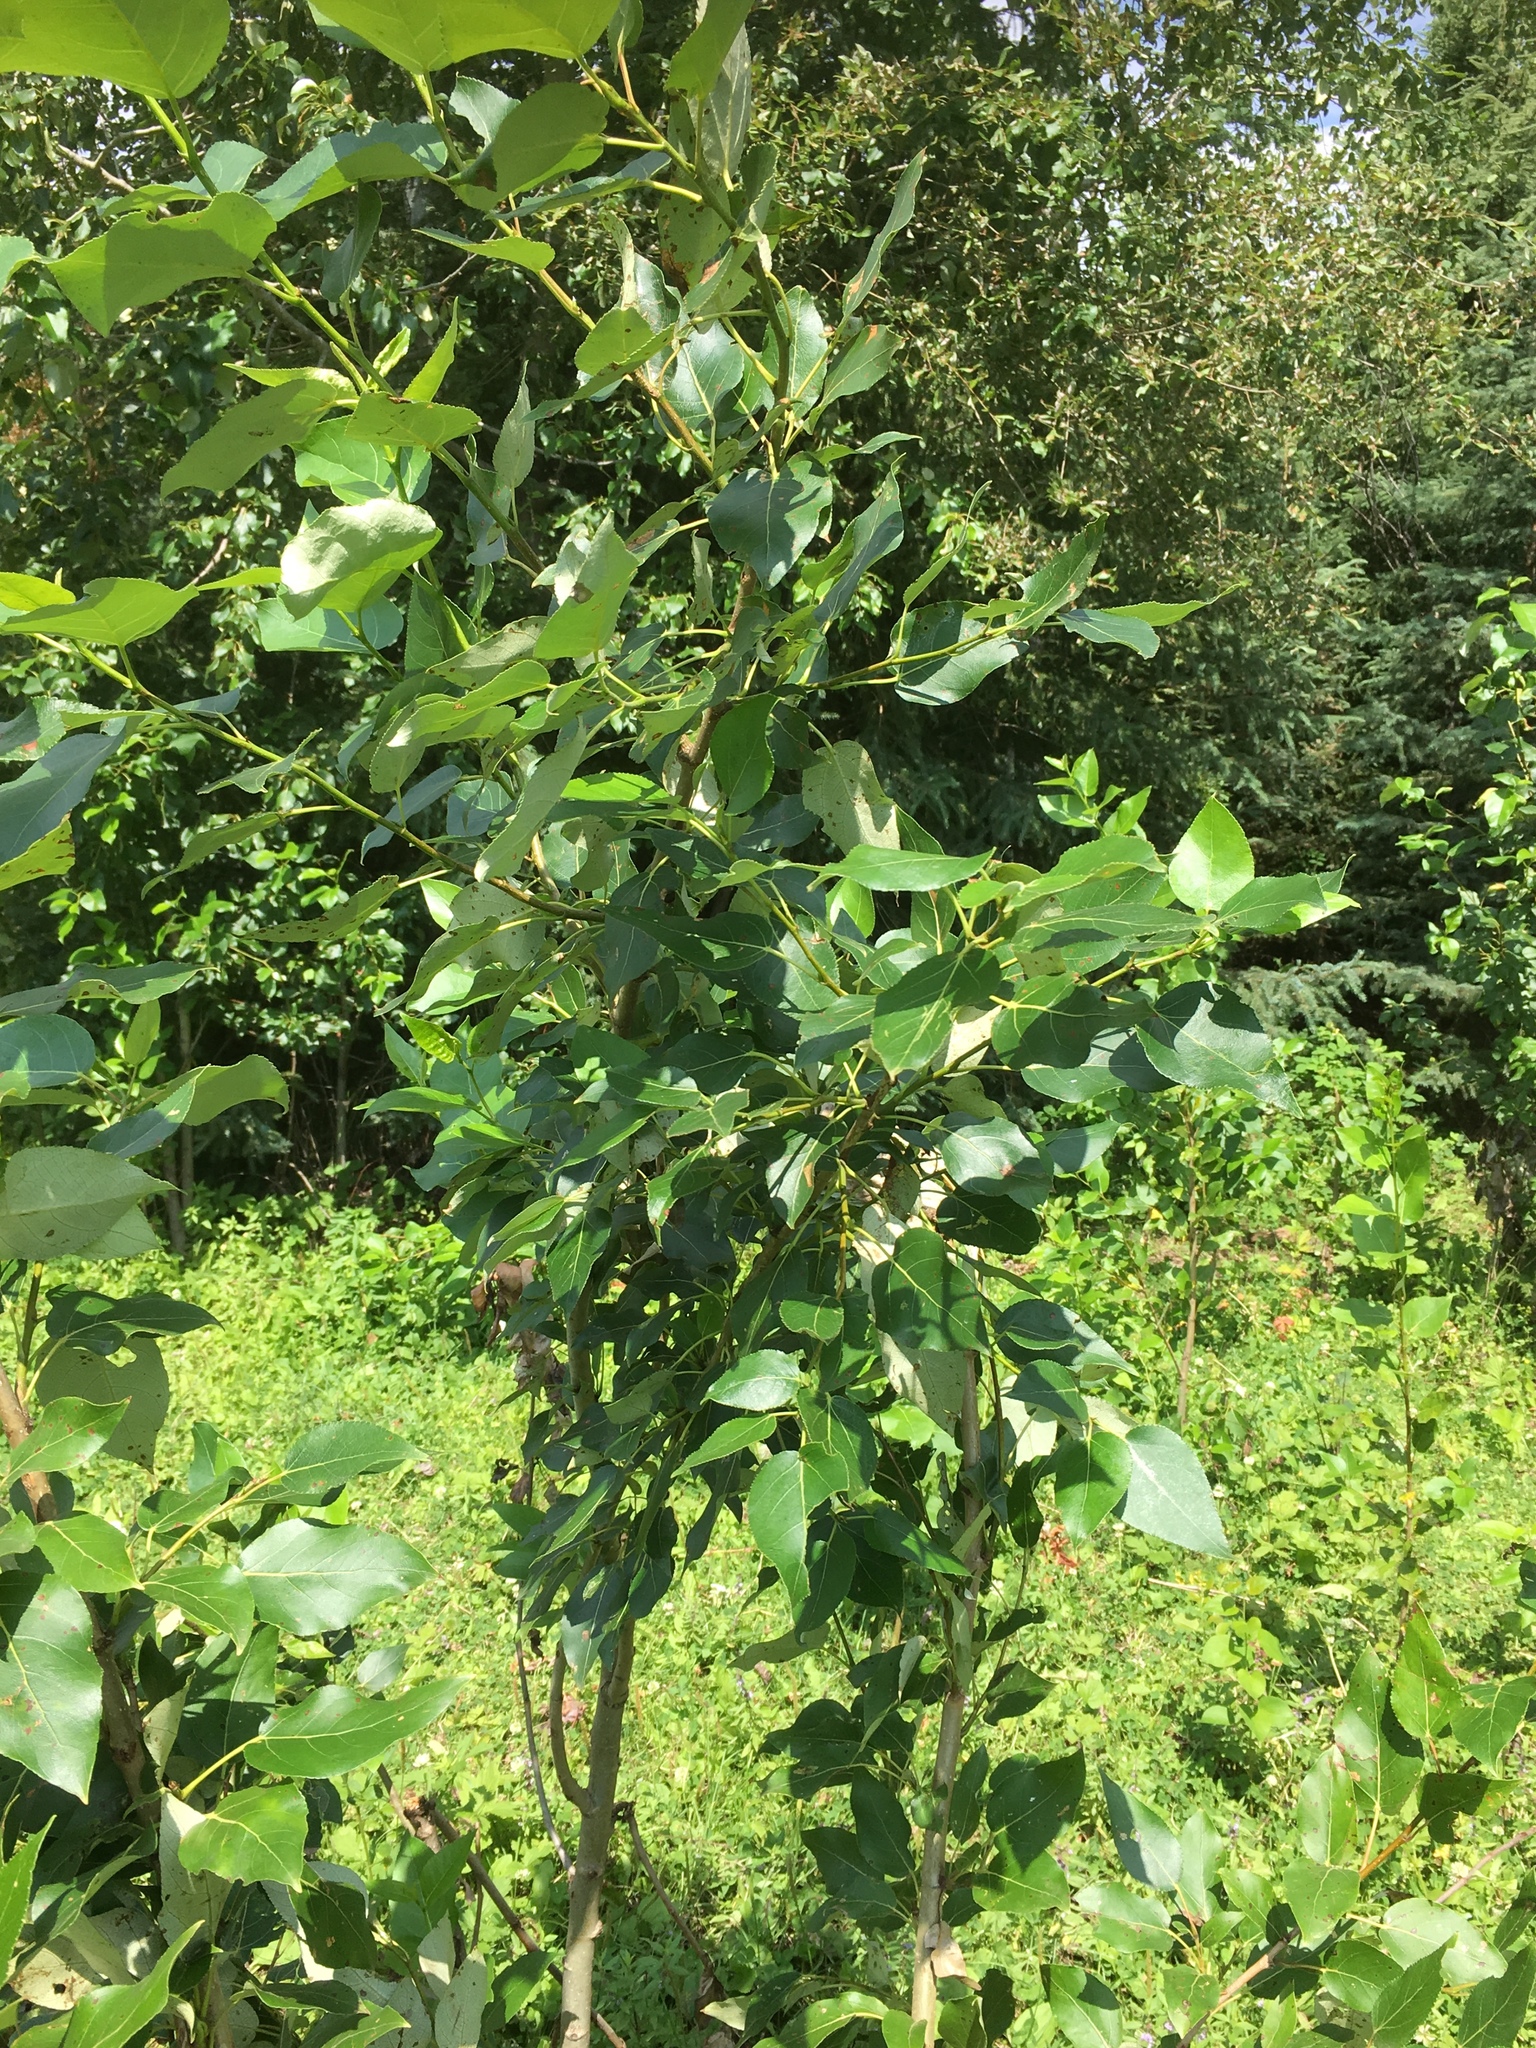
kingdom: Plantae
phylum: Tracheophyta
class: Magnoliopsida
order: Malpighiales
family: Salicaceae
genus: Populus
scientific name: Populus balsamifera
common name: Balsam poplar
